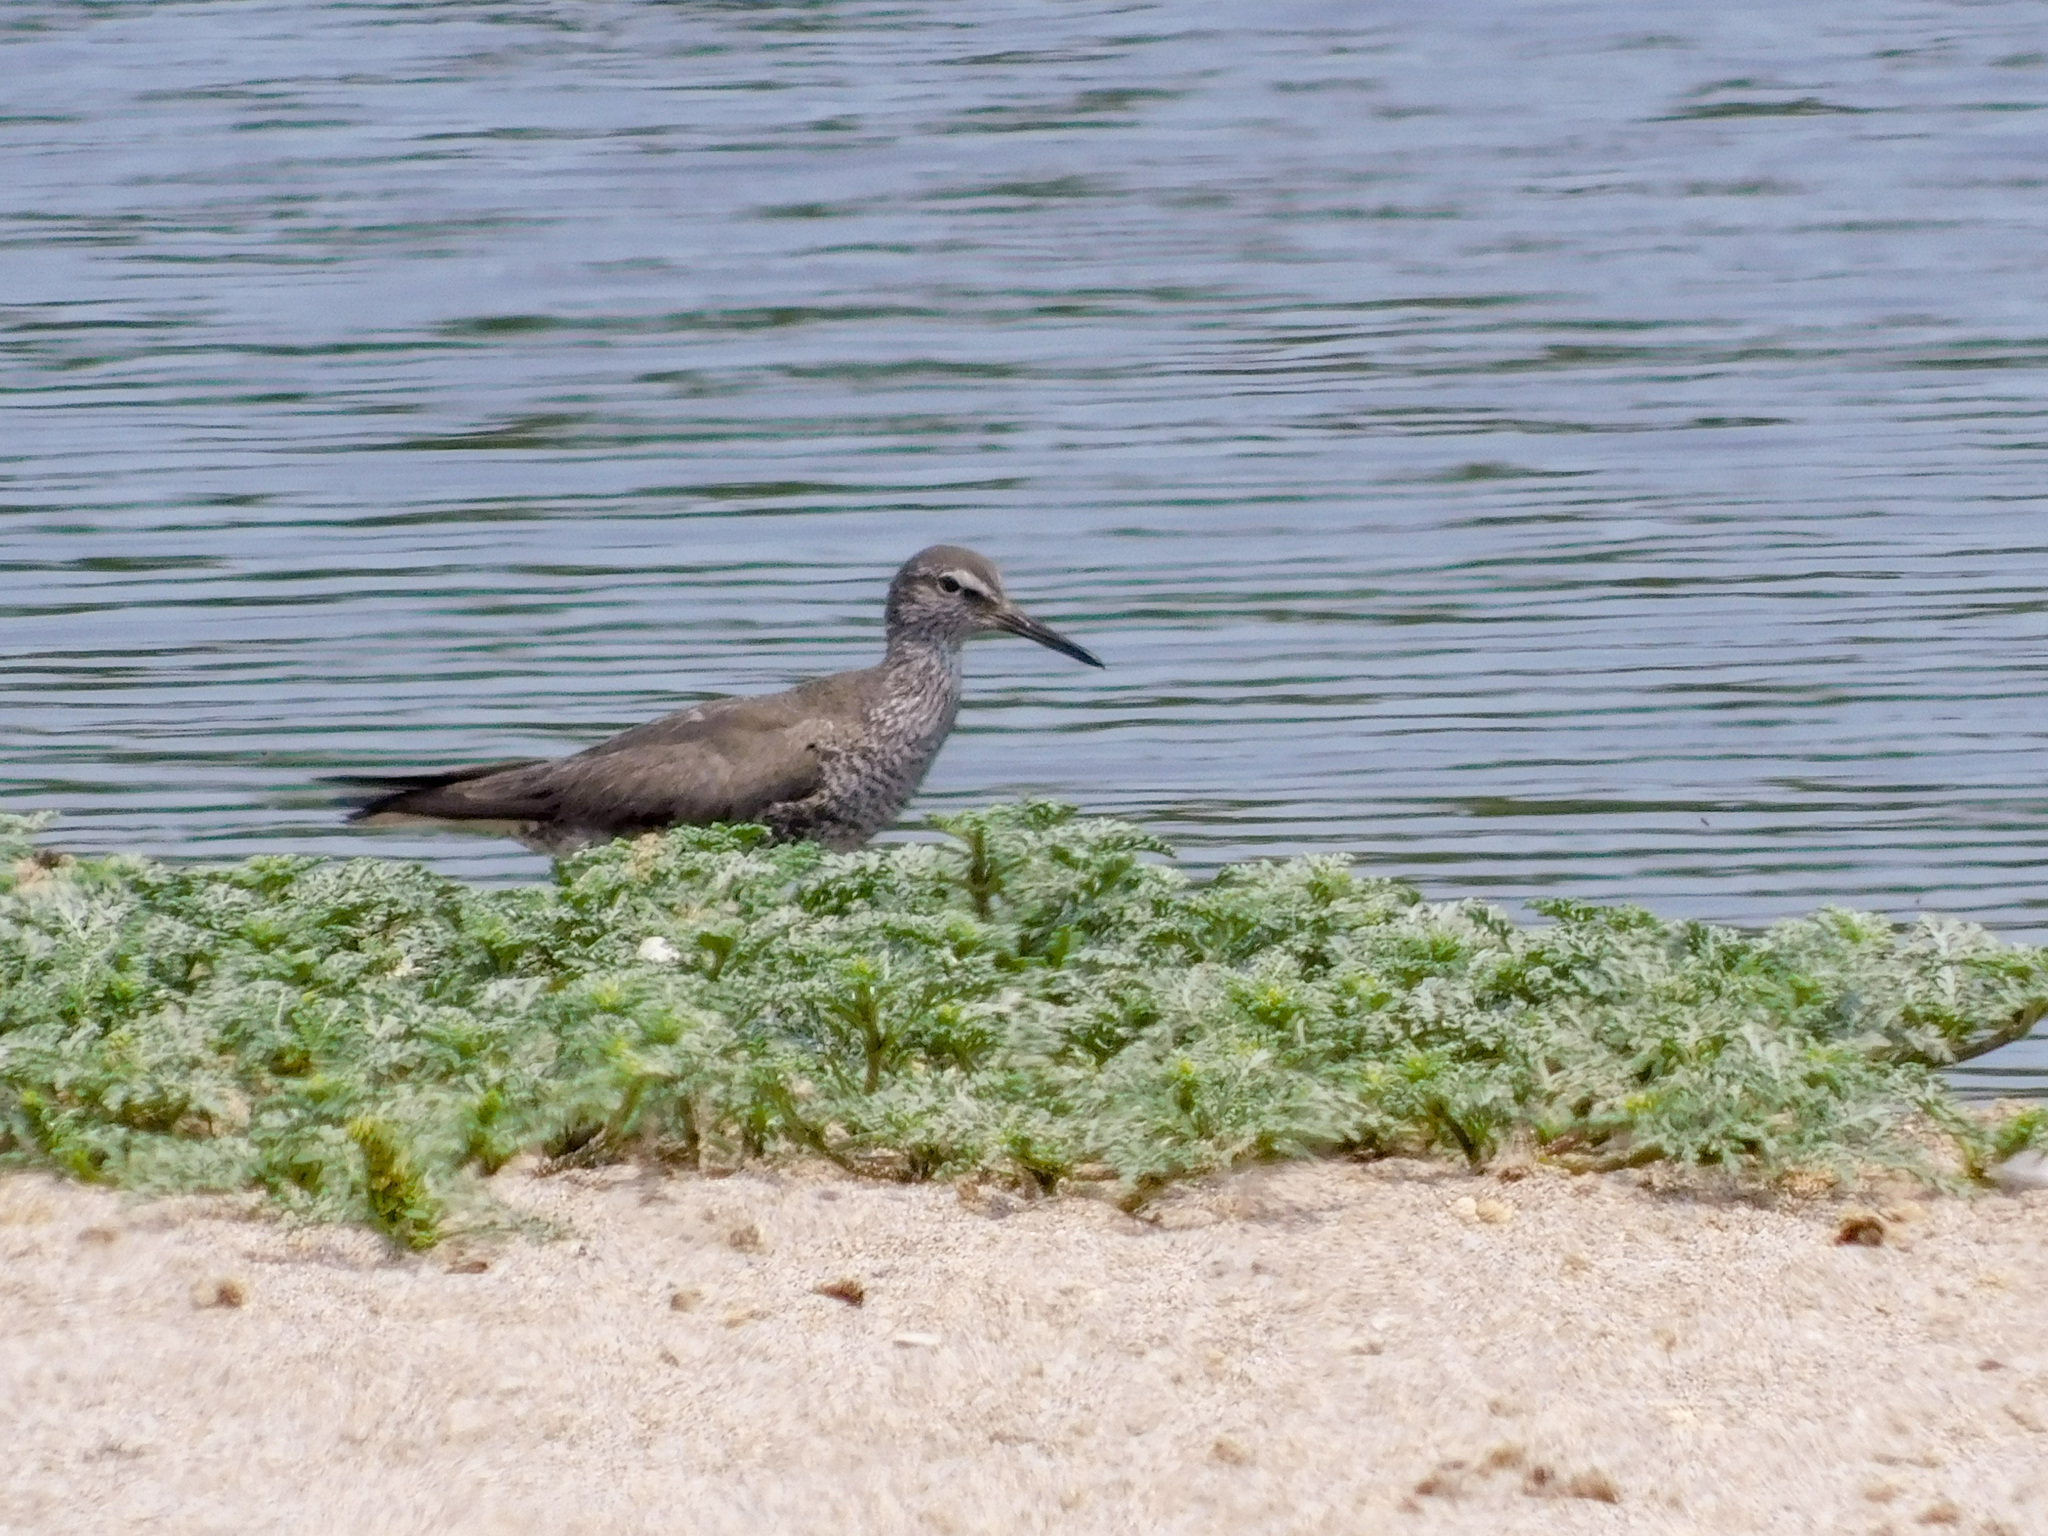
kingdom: Animalia
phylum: Chordata
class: Aves
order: Charadriiformes
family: Scolopacidae
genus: Tringa
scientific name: Tringa incana
